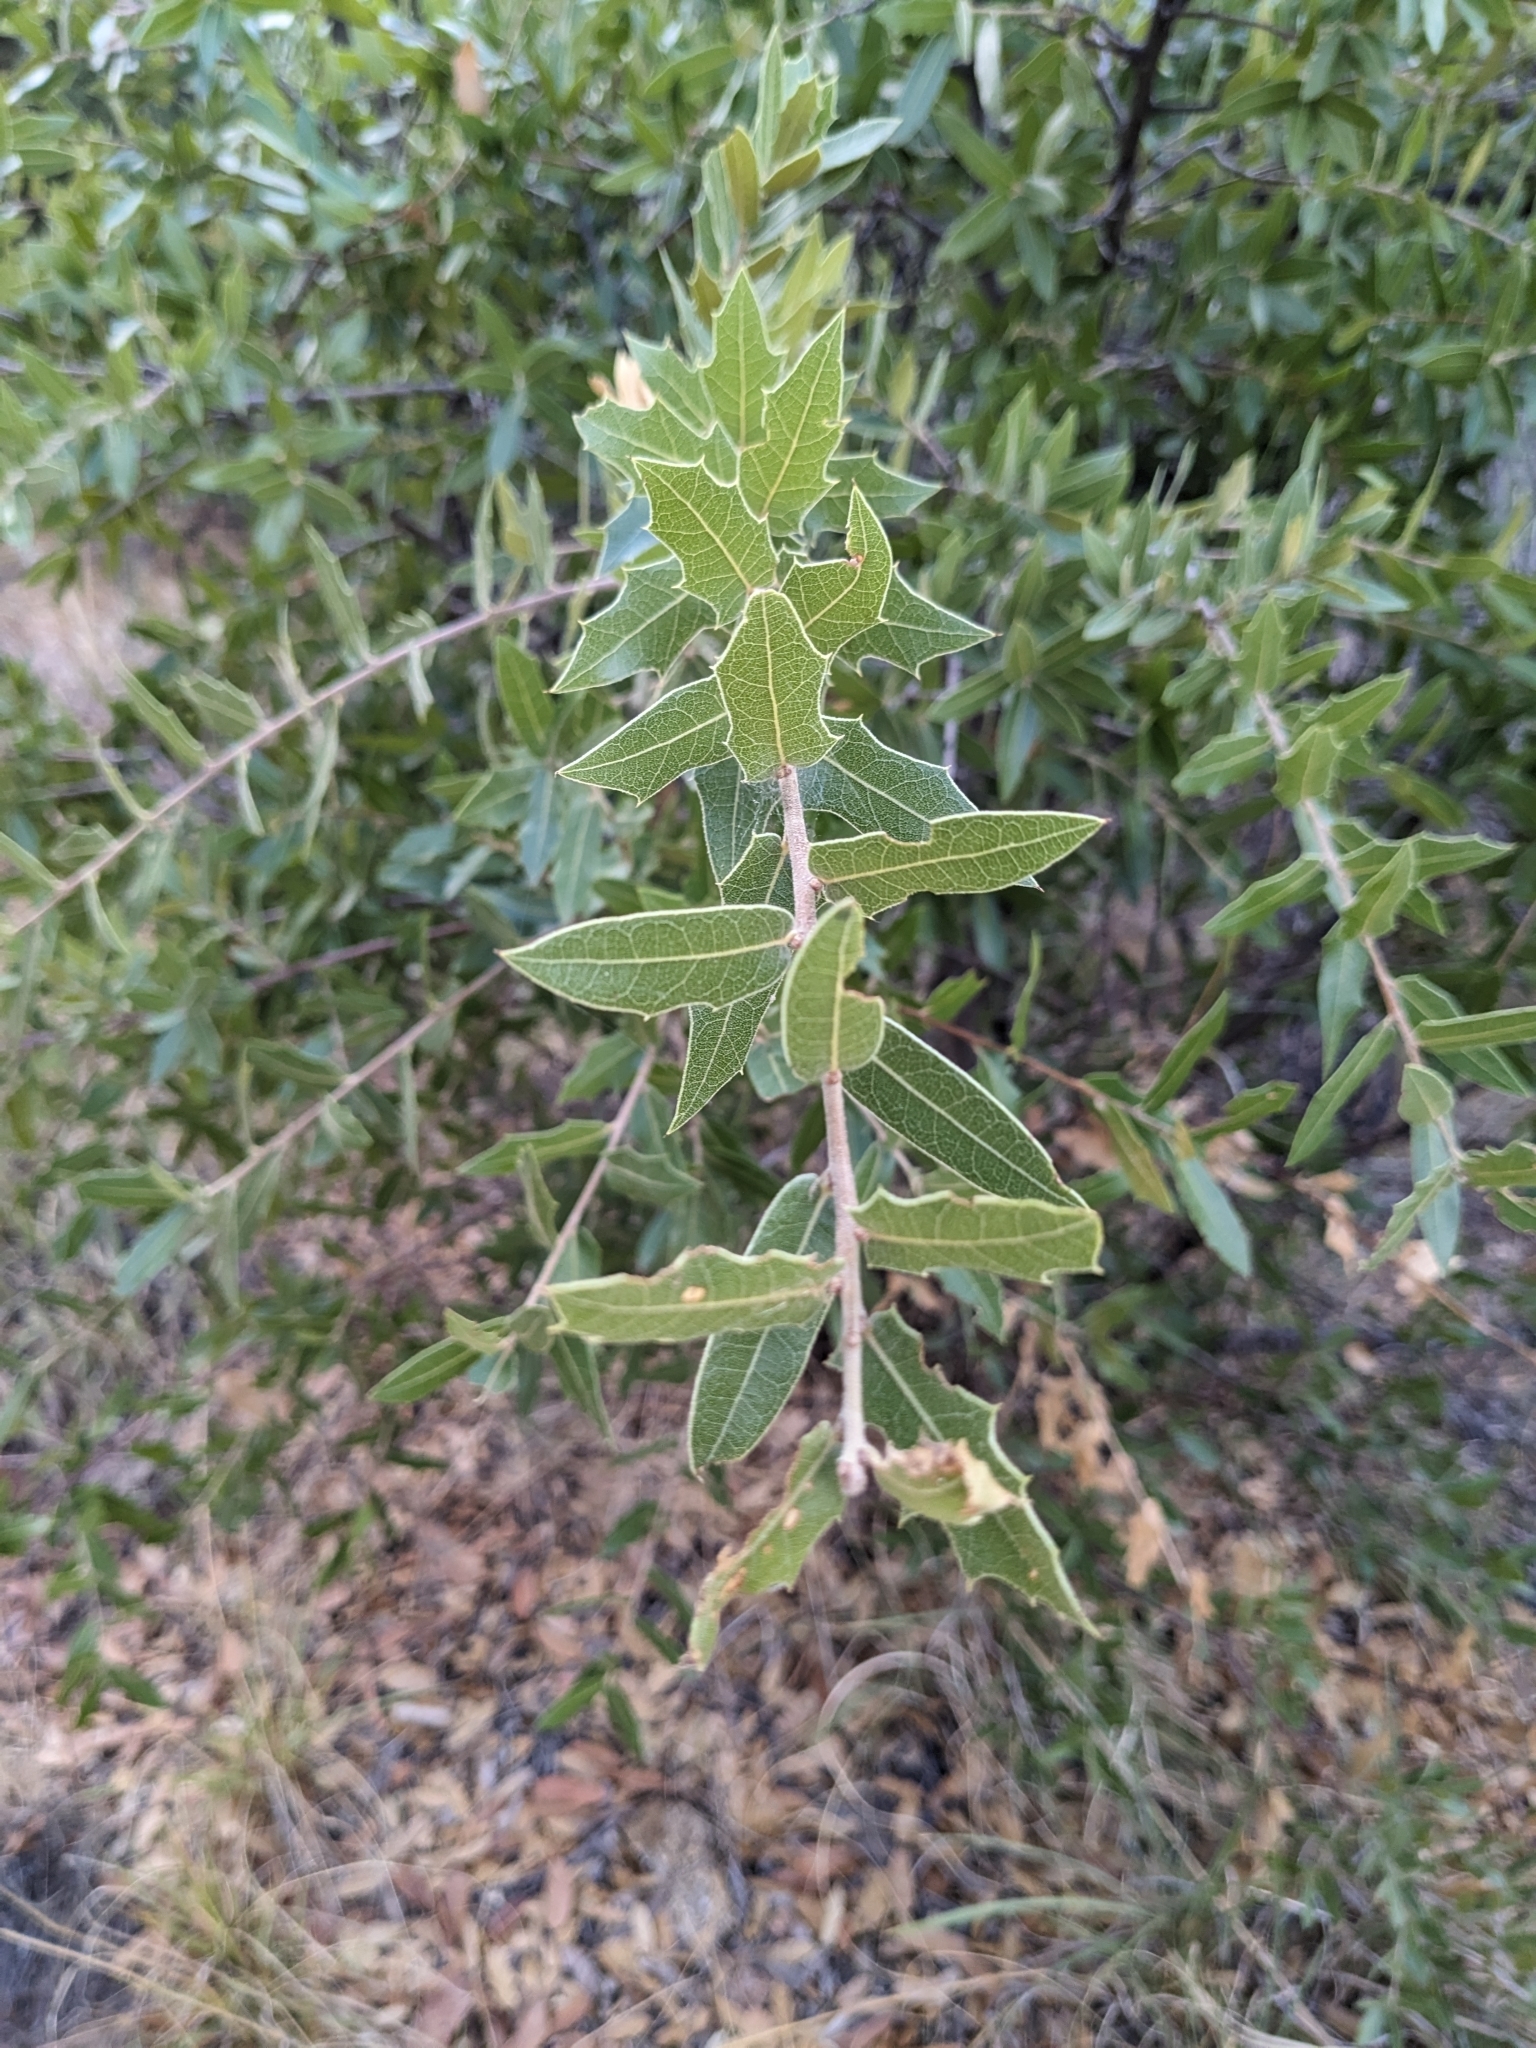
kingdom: Plantae
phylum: Tracheophyta
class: Magnoliopsida
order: Fagales
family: Fagaceae
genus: Quercus
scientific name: Quercus emoryi
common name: Emory oak
